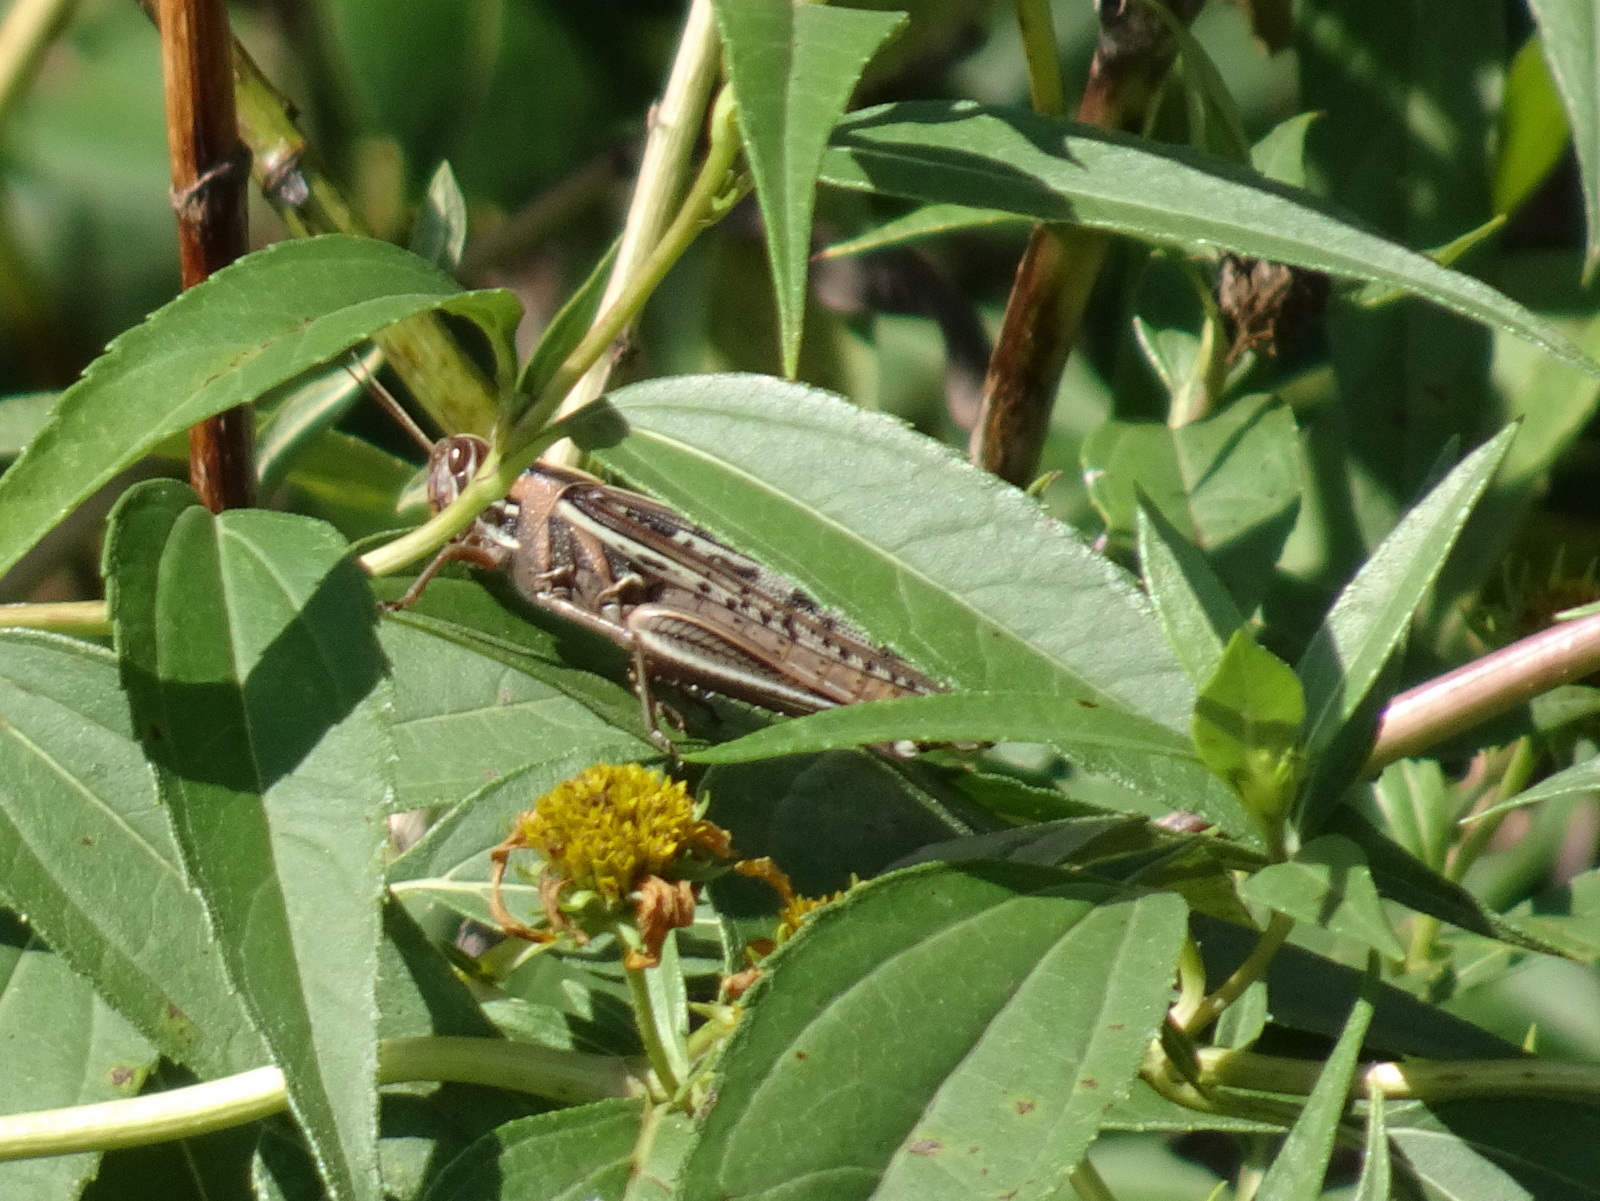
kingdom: Animalia
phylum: Arthropoda
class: Insecta
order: Orthoptera
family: Acrididae
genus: Schistocerca
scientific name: Schistocerca americana
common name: American bird locust
